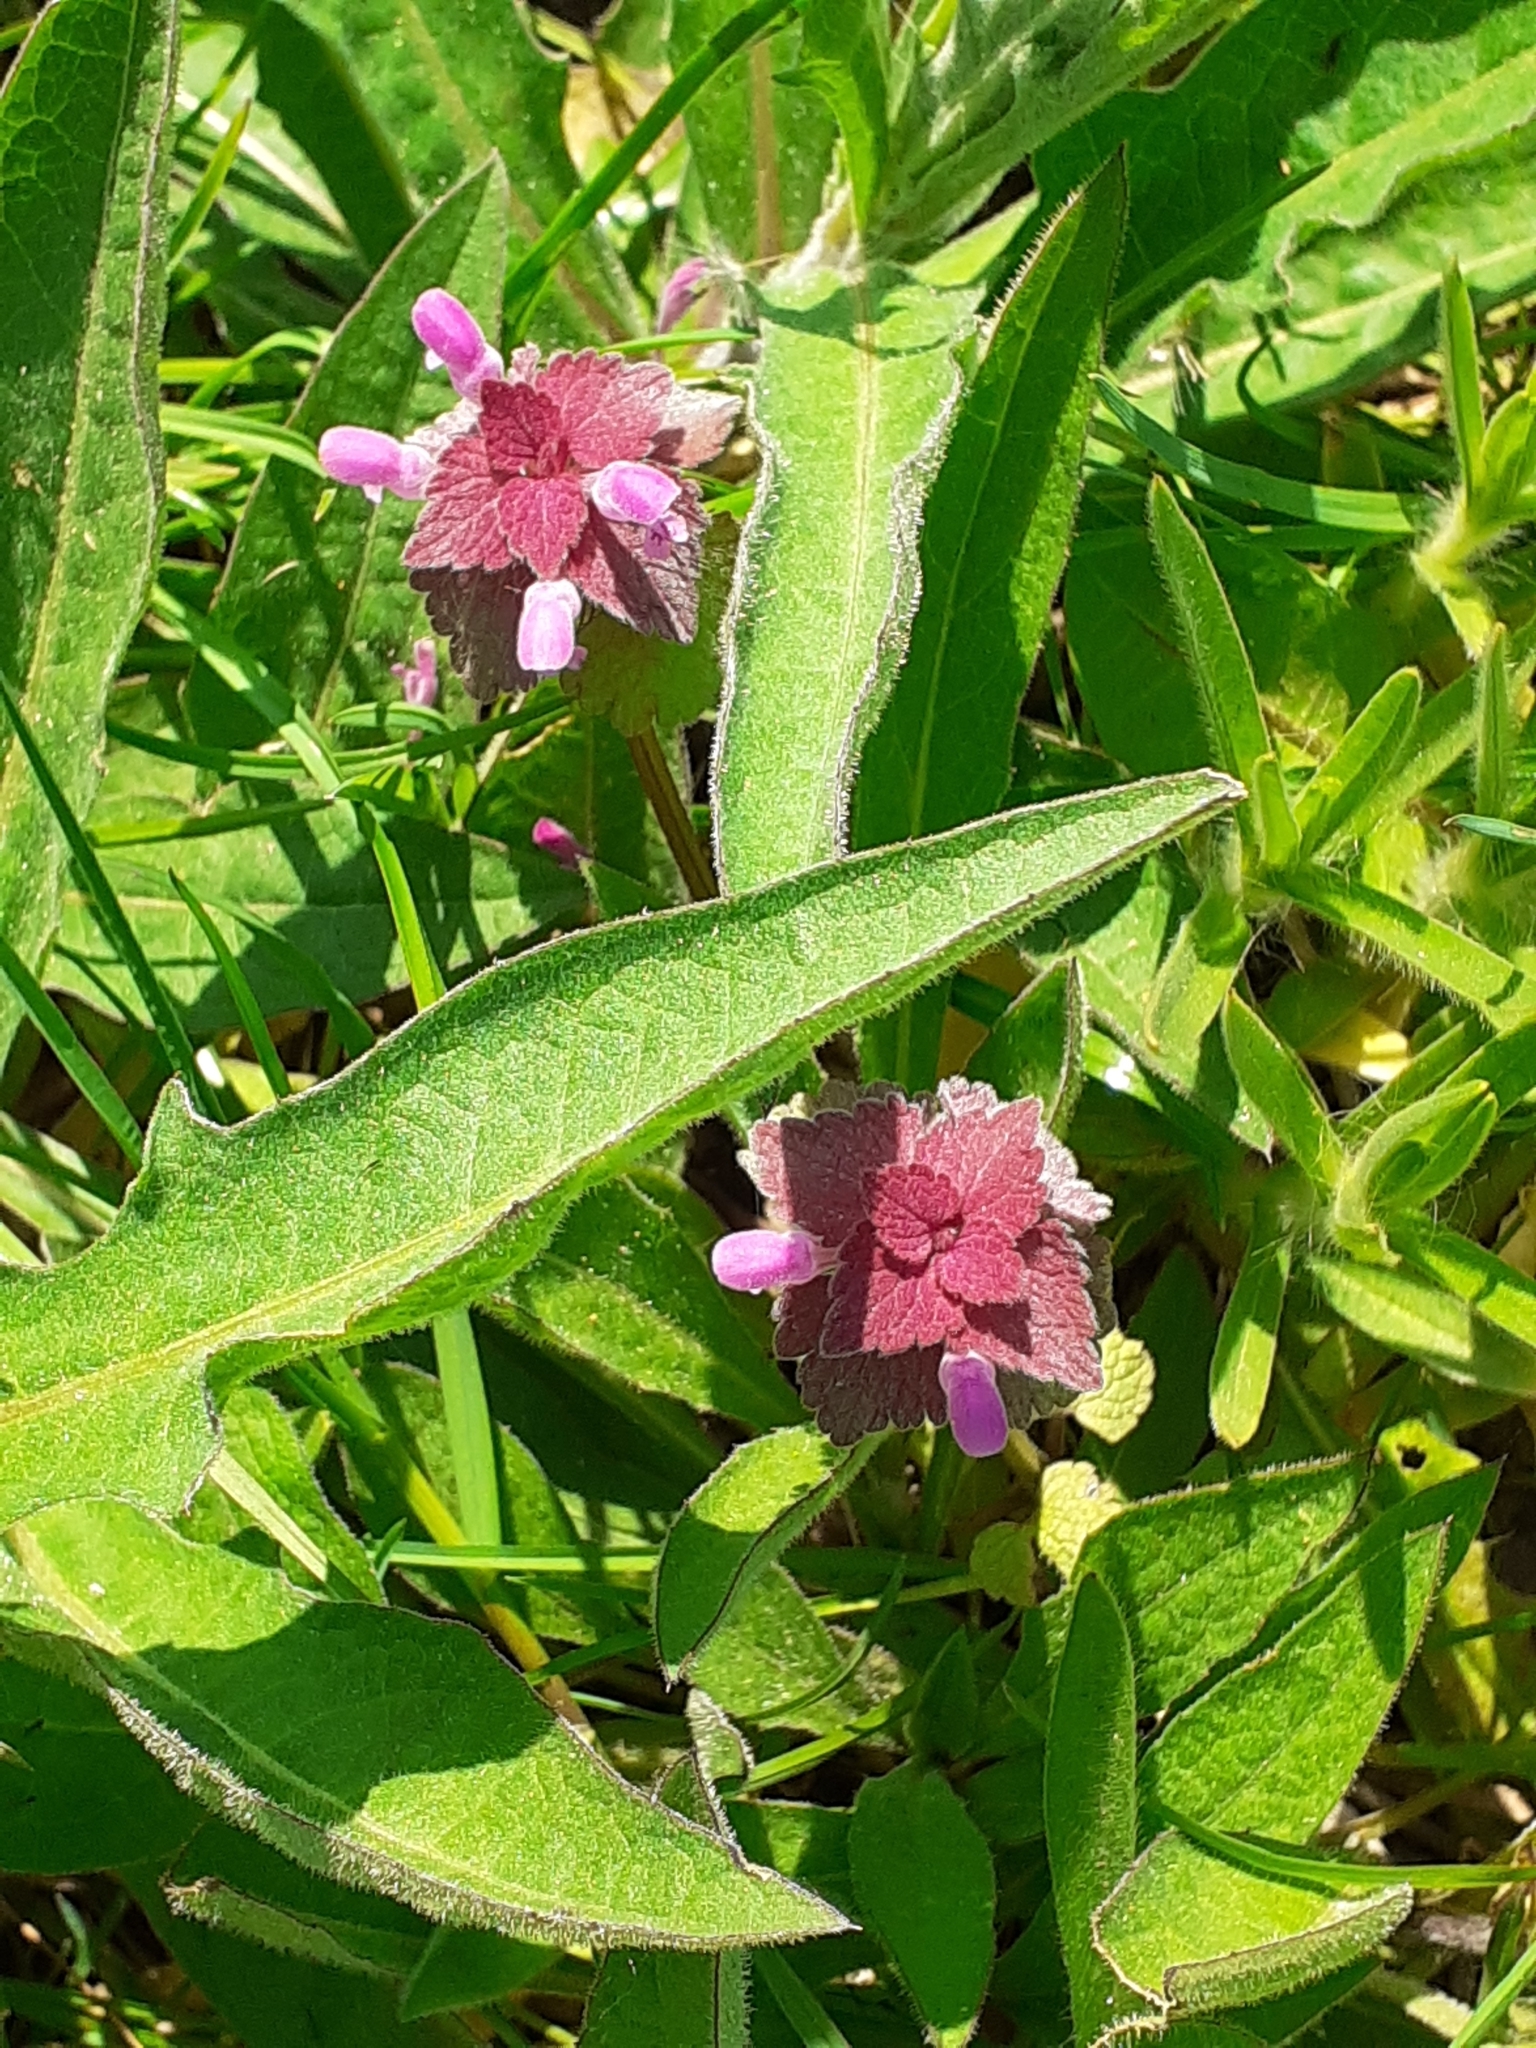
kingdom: Plantae
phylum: Tracheophyta
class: Magnoliopsida
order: Lamiales
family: Lamiaceae
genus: Lamium
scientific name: Lamium purpureum
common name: Red dead-nettle
